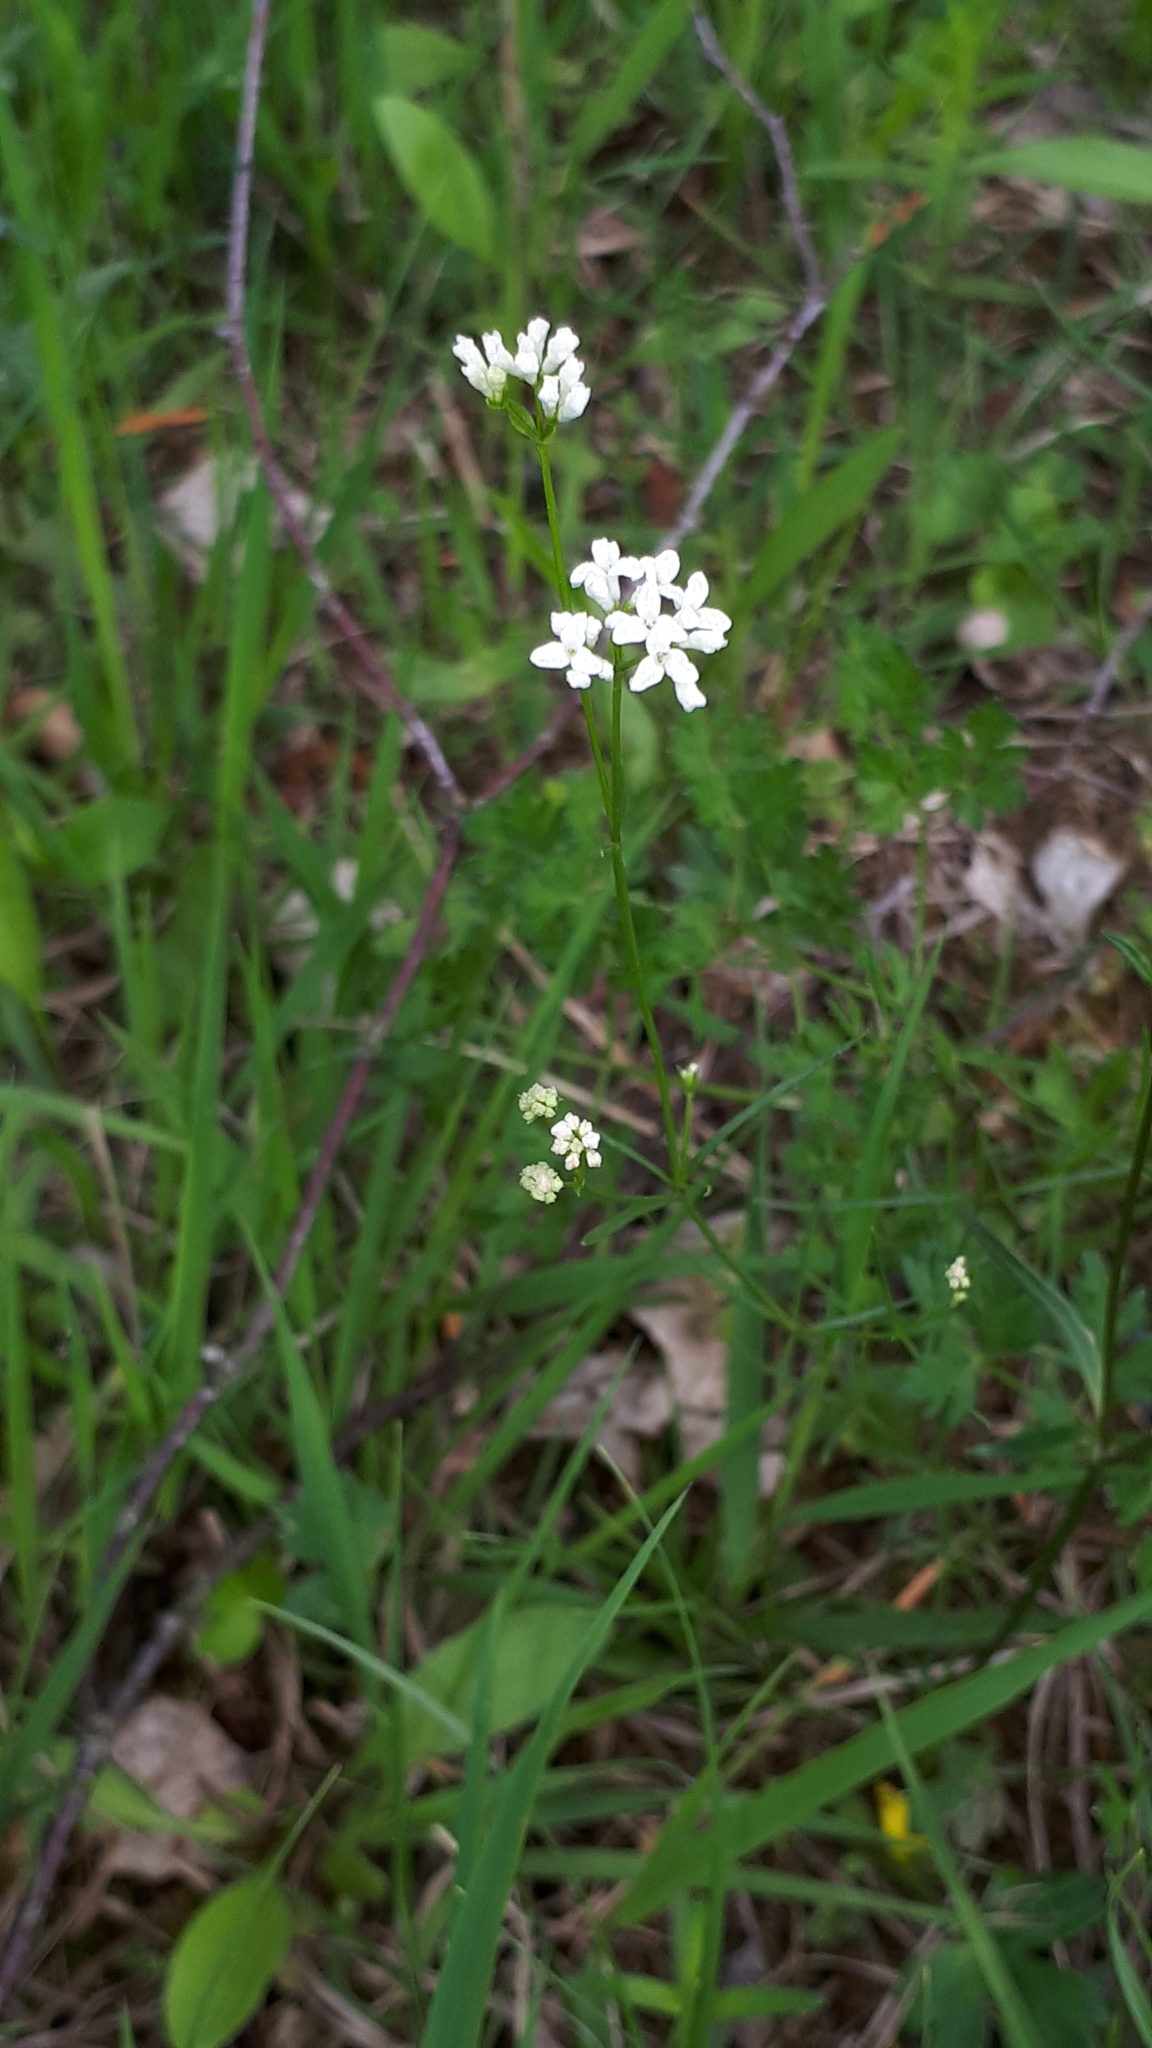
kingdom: Plantae
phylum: Tracheophyta
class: Magnoliopsida
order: Gentianales
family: Rubiaceae
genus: Asperula
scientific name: Asperula tinctoria
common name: Dyer's woodruff
